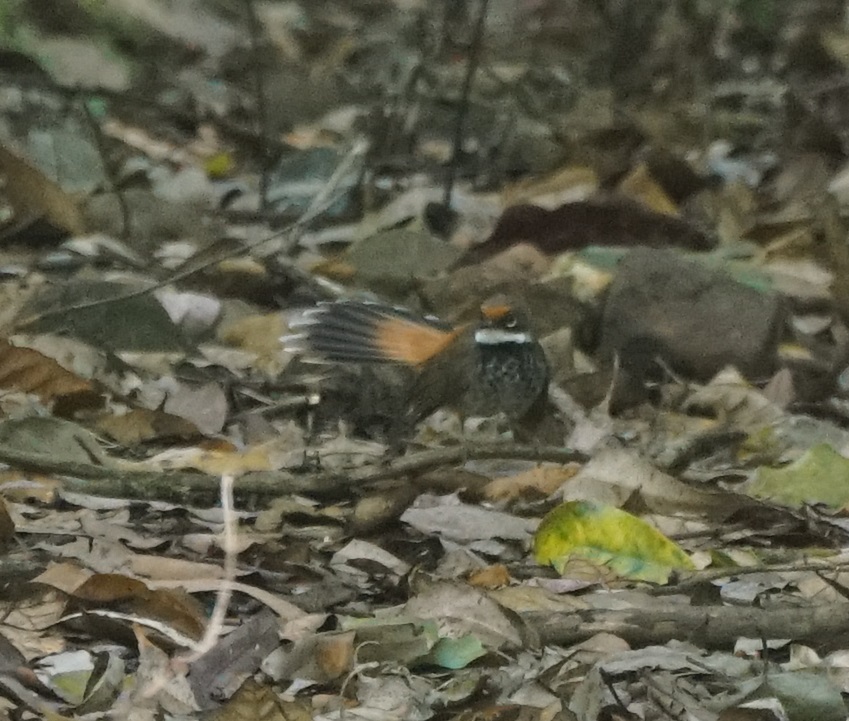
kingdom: Animalia
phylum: Chordata
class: Aves
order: Passeriformes
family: Rhipiduridae
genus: Rhipidura
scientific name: Rhipidura rufifrons
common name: Rufous fantail
